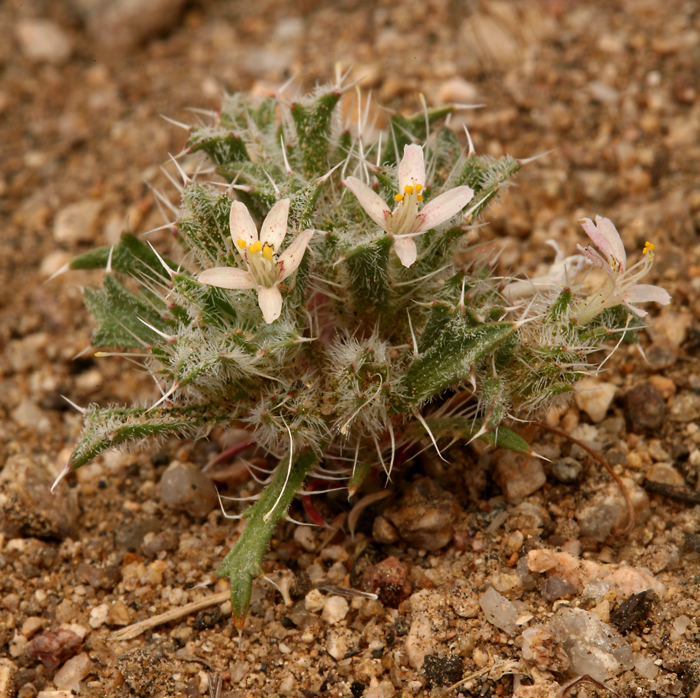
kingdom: Plantae
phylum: Tracheophyta
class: Magnoliopsida
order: Ericales
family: Polemoniaceae
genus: Loeseliastrum
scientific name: Loeseliastrum schottii
